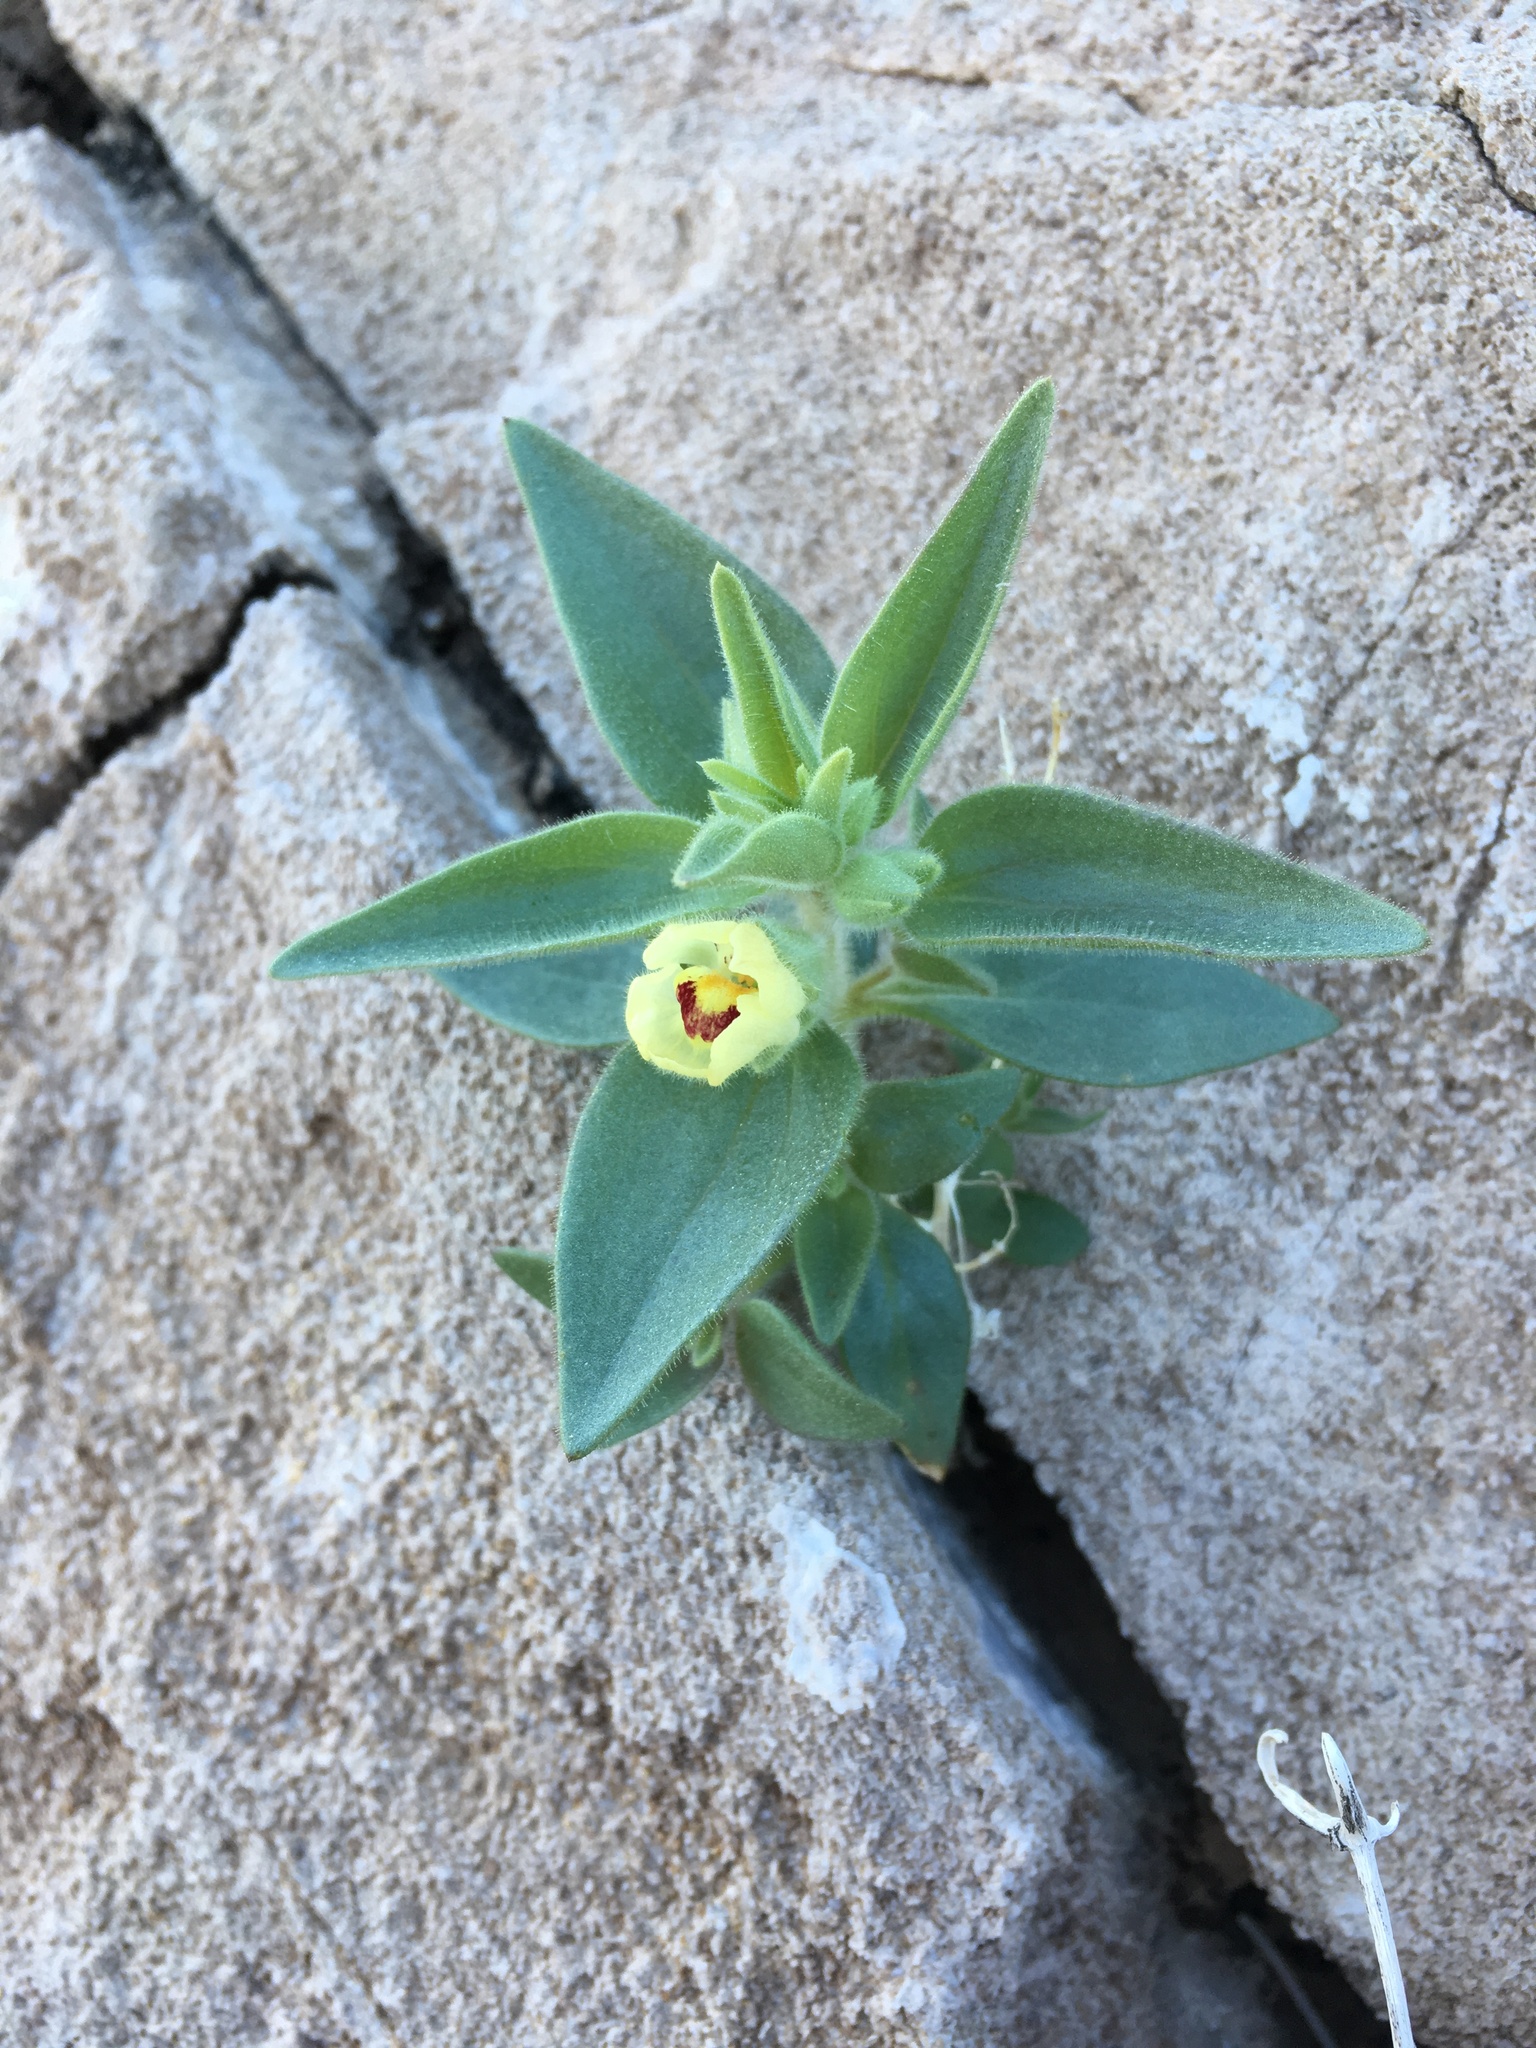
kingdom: Plantae
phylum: Tracheophyta
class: Magnoliopsida
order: Lamiales
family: Plantaginaceae
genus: Mohavea
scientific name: Mohavea confertiflora
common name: Ghost flower
